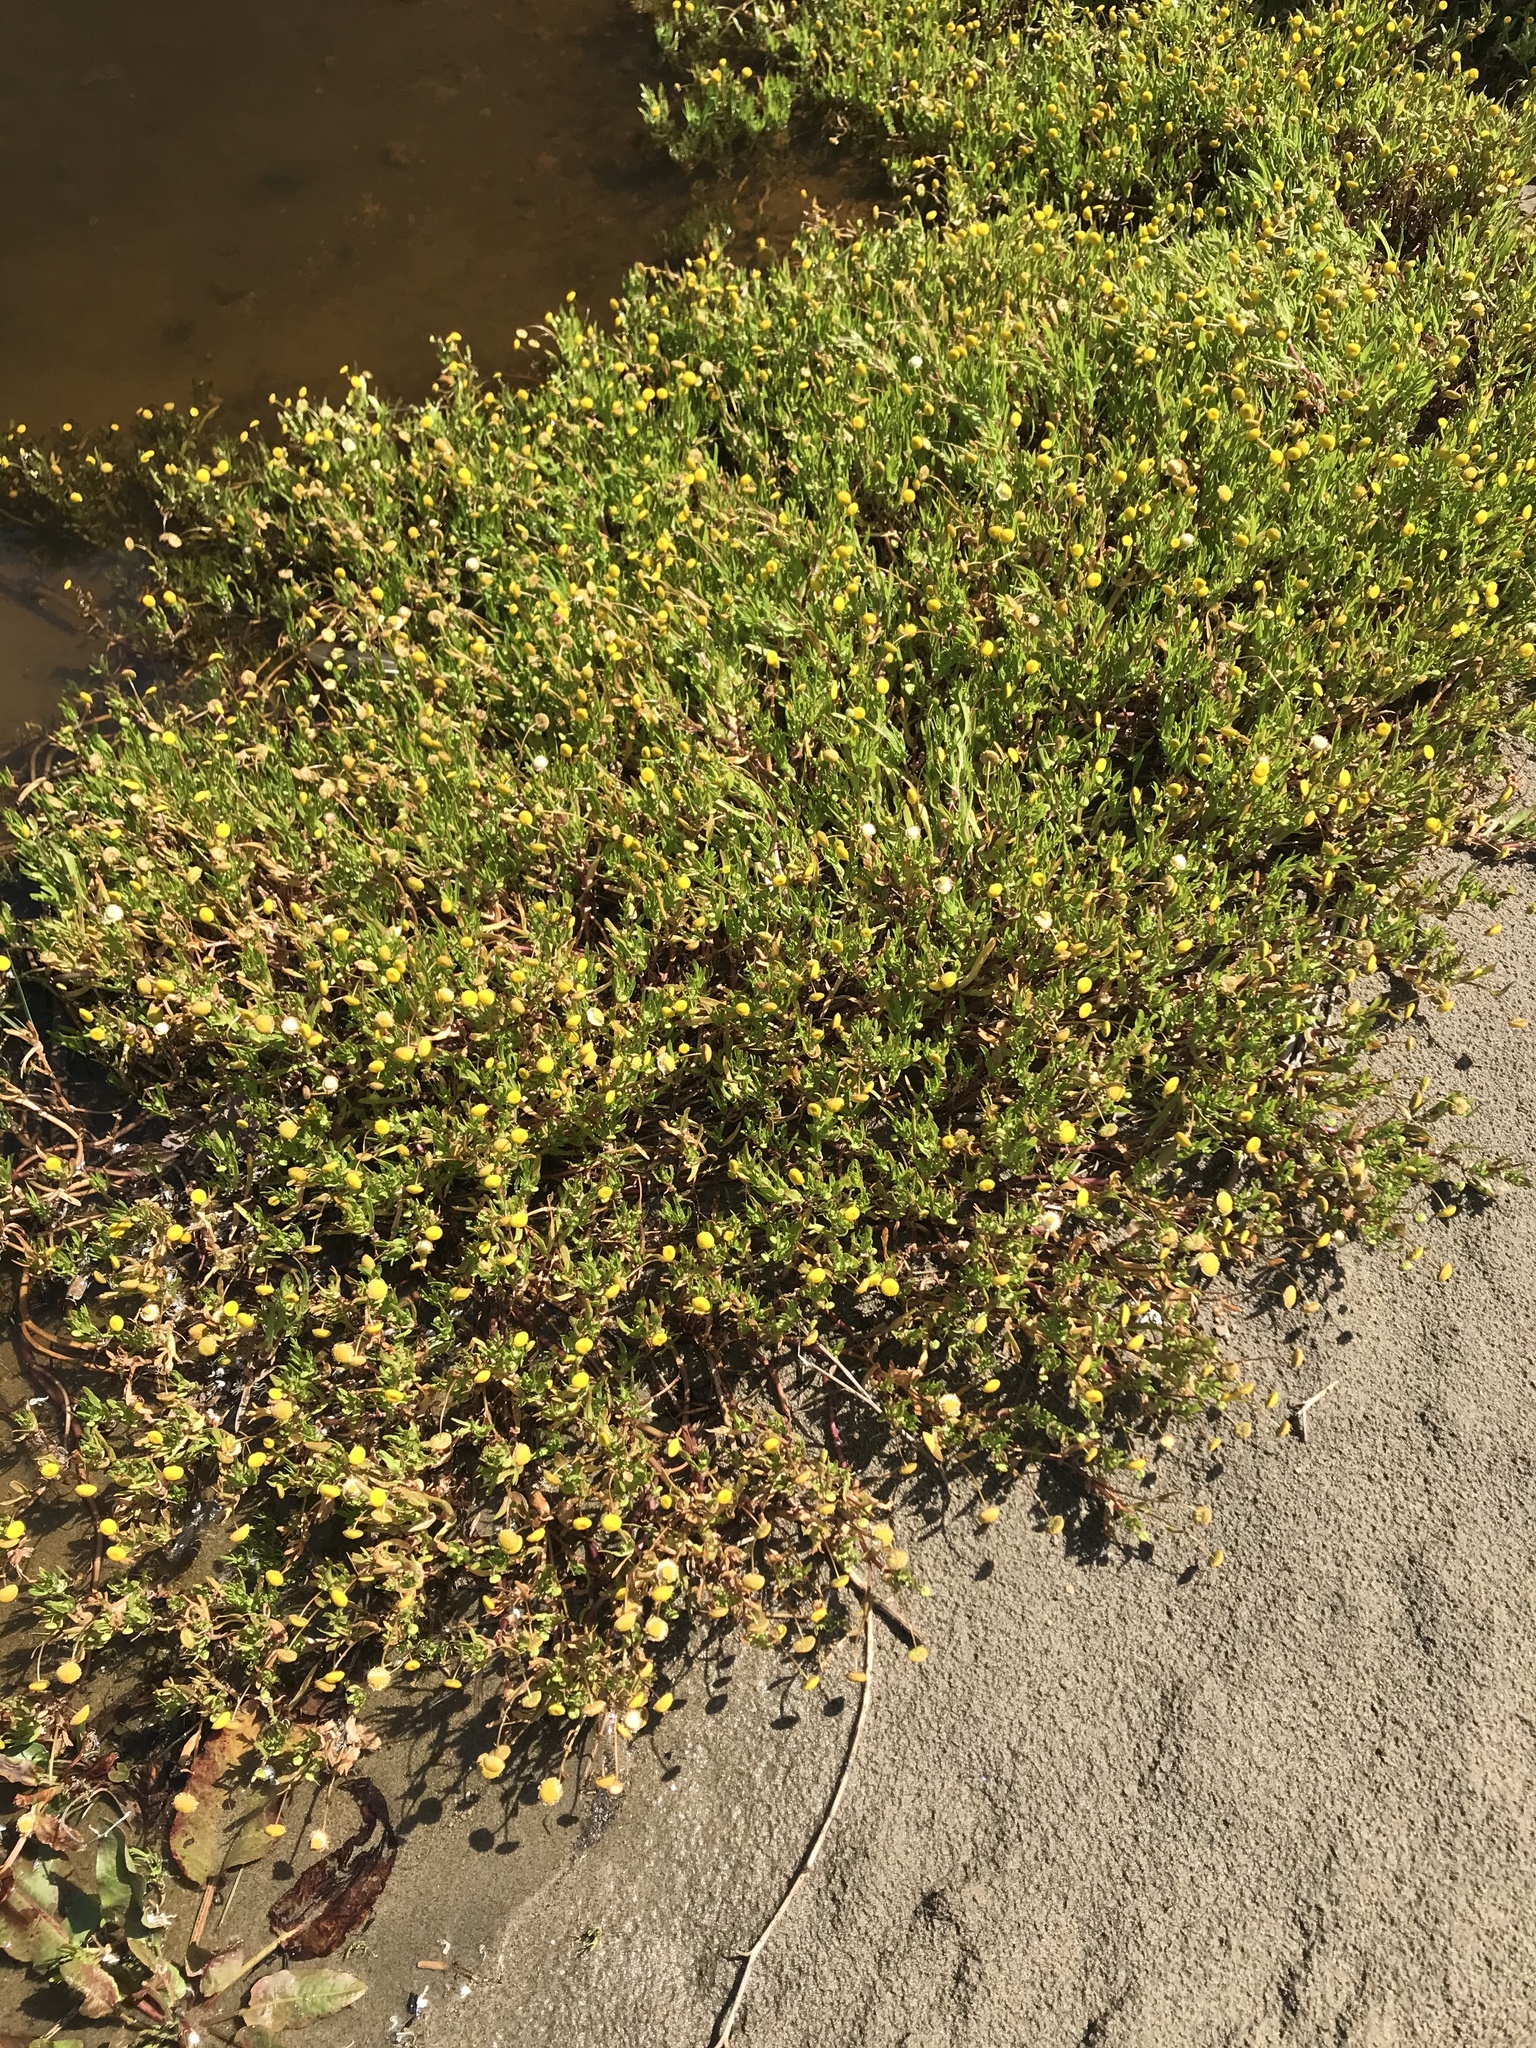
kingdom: Plantae
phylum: Tracheophyta
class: Magnoliopsida
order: Asterales
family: Asteraceae
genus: Cotula
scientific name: Cotula coronopifolia
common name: Buttonweed
